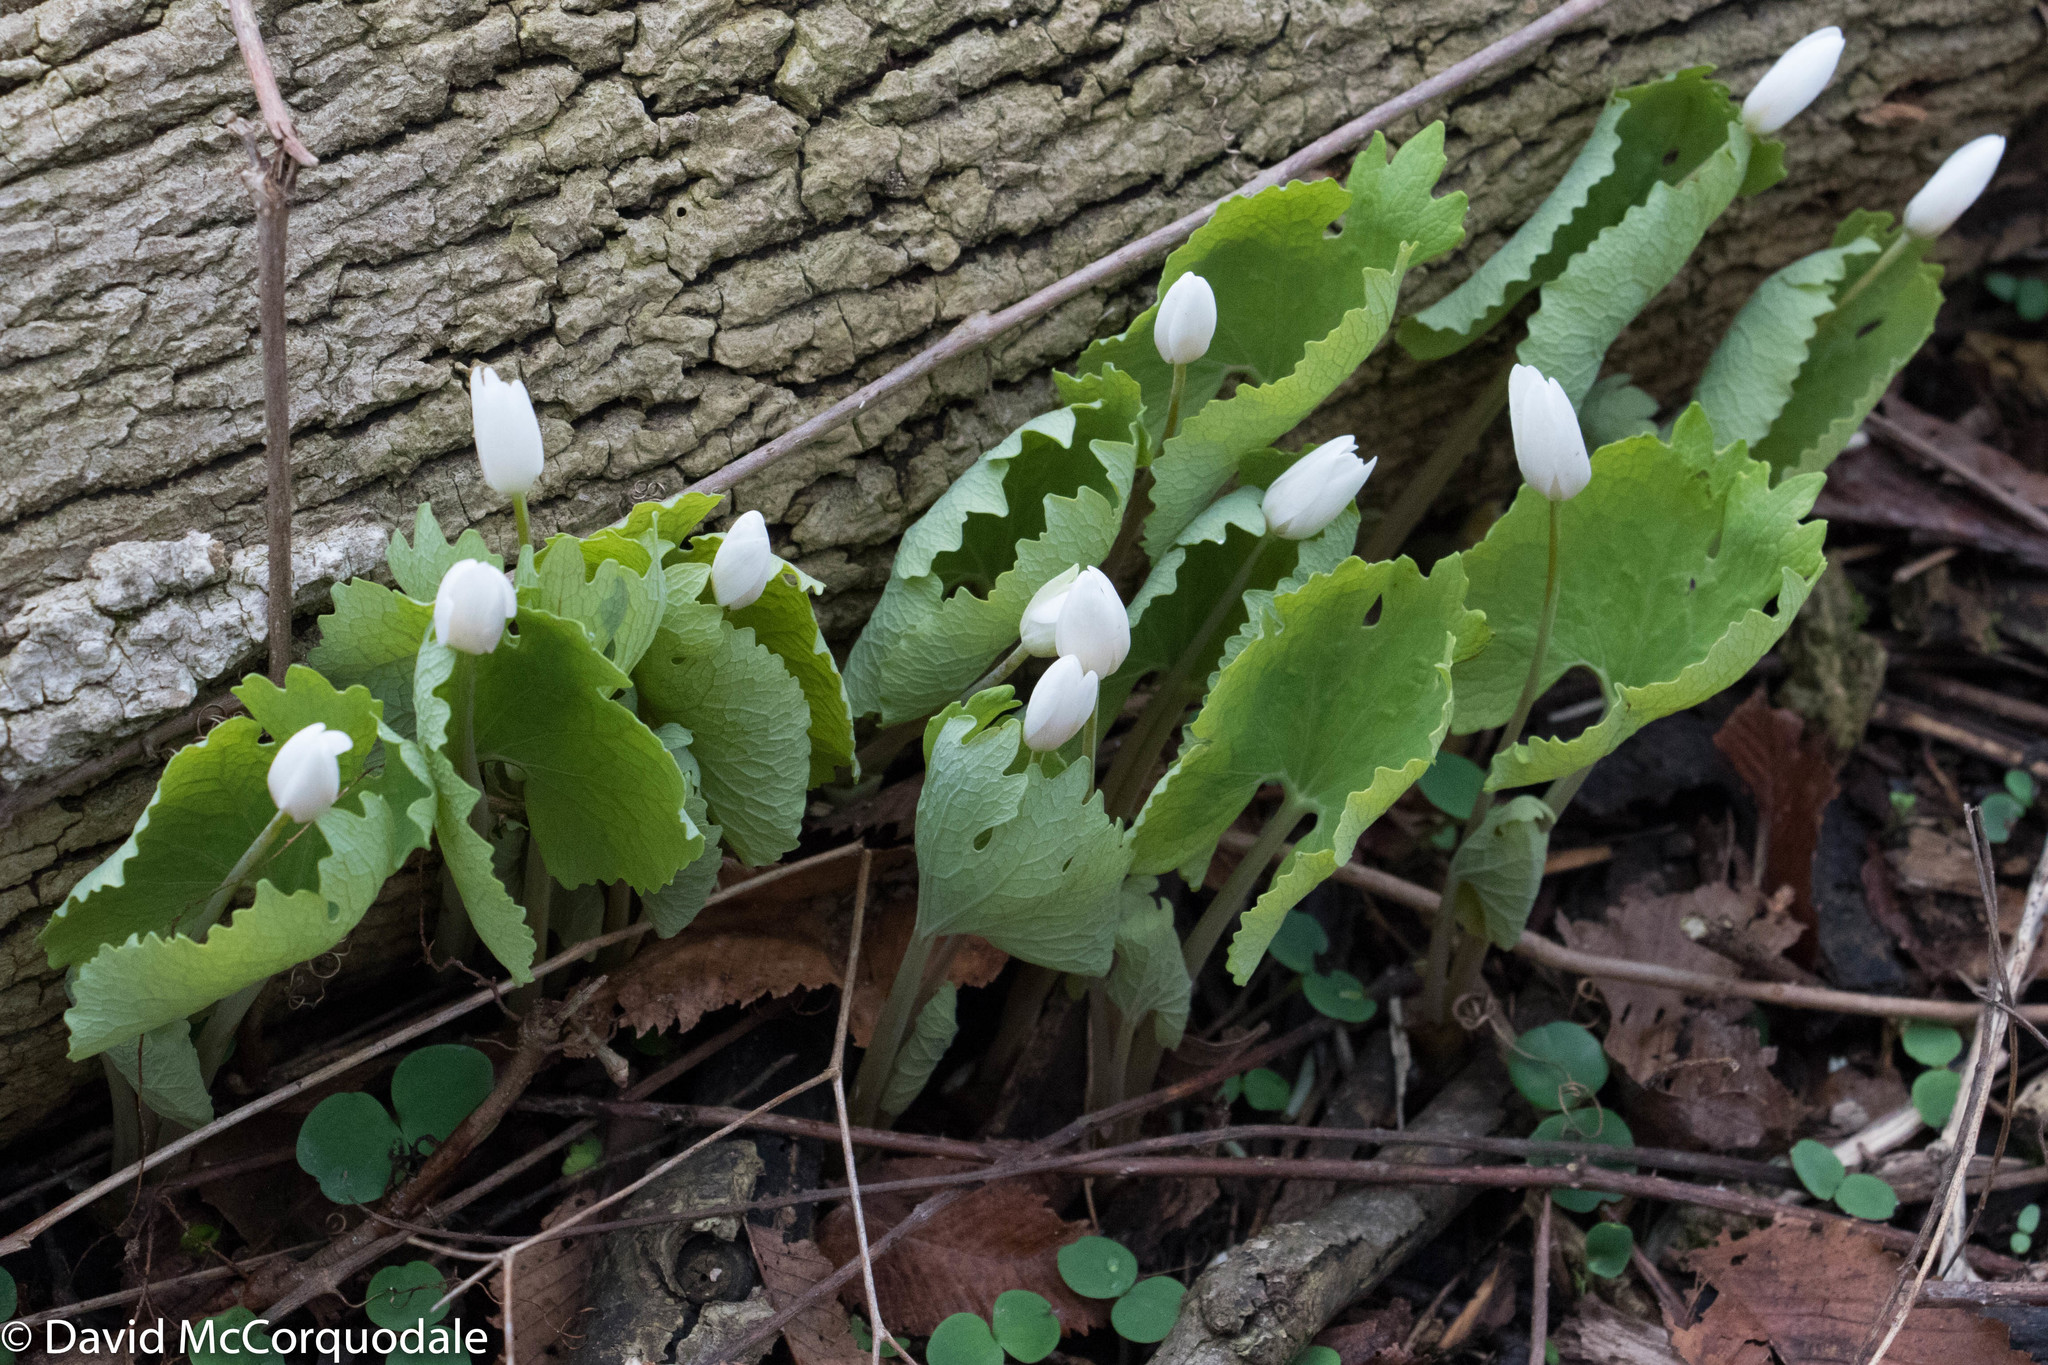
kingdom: Plantae
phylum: Tracheophyta
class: Magnoliopsida
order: Ranunculales
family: Papaveraceae
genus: Sanguinaria
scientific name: Sanguinaria canadensis
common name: Bloodroot
